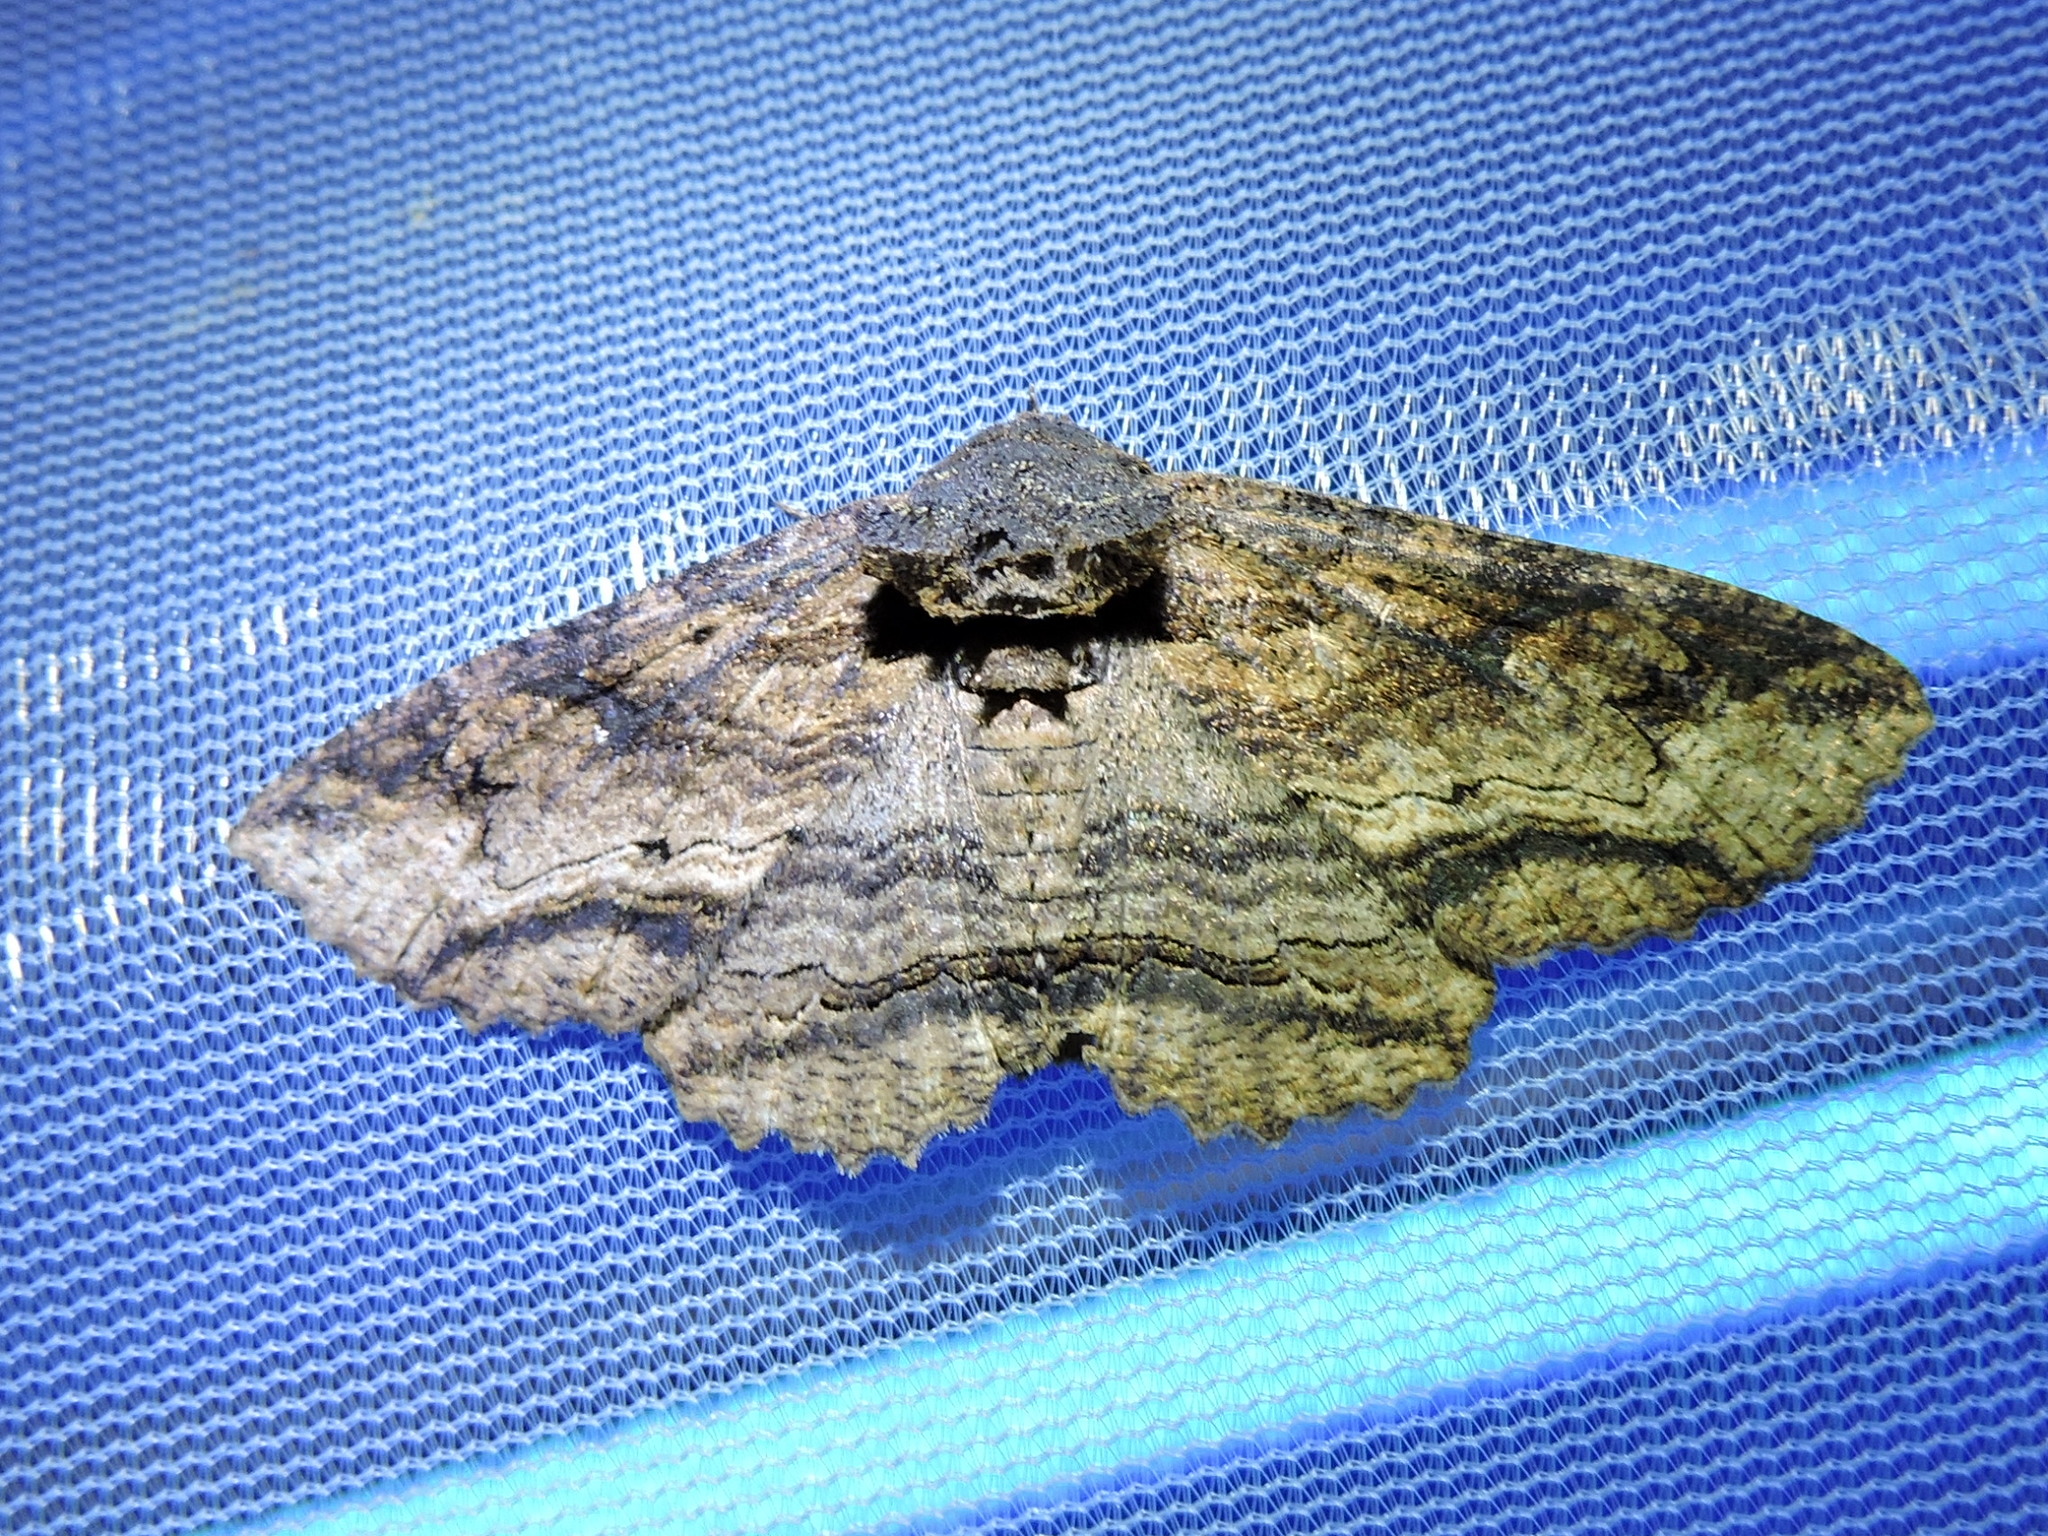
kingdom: Animalia
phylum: Arthropoda
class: Insecta
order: Lepidoptera
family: Erebidae
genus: Zale
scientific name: Zale lunata
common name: Lunate zale moth
